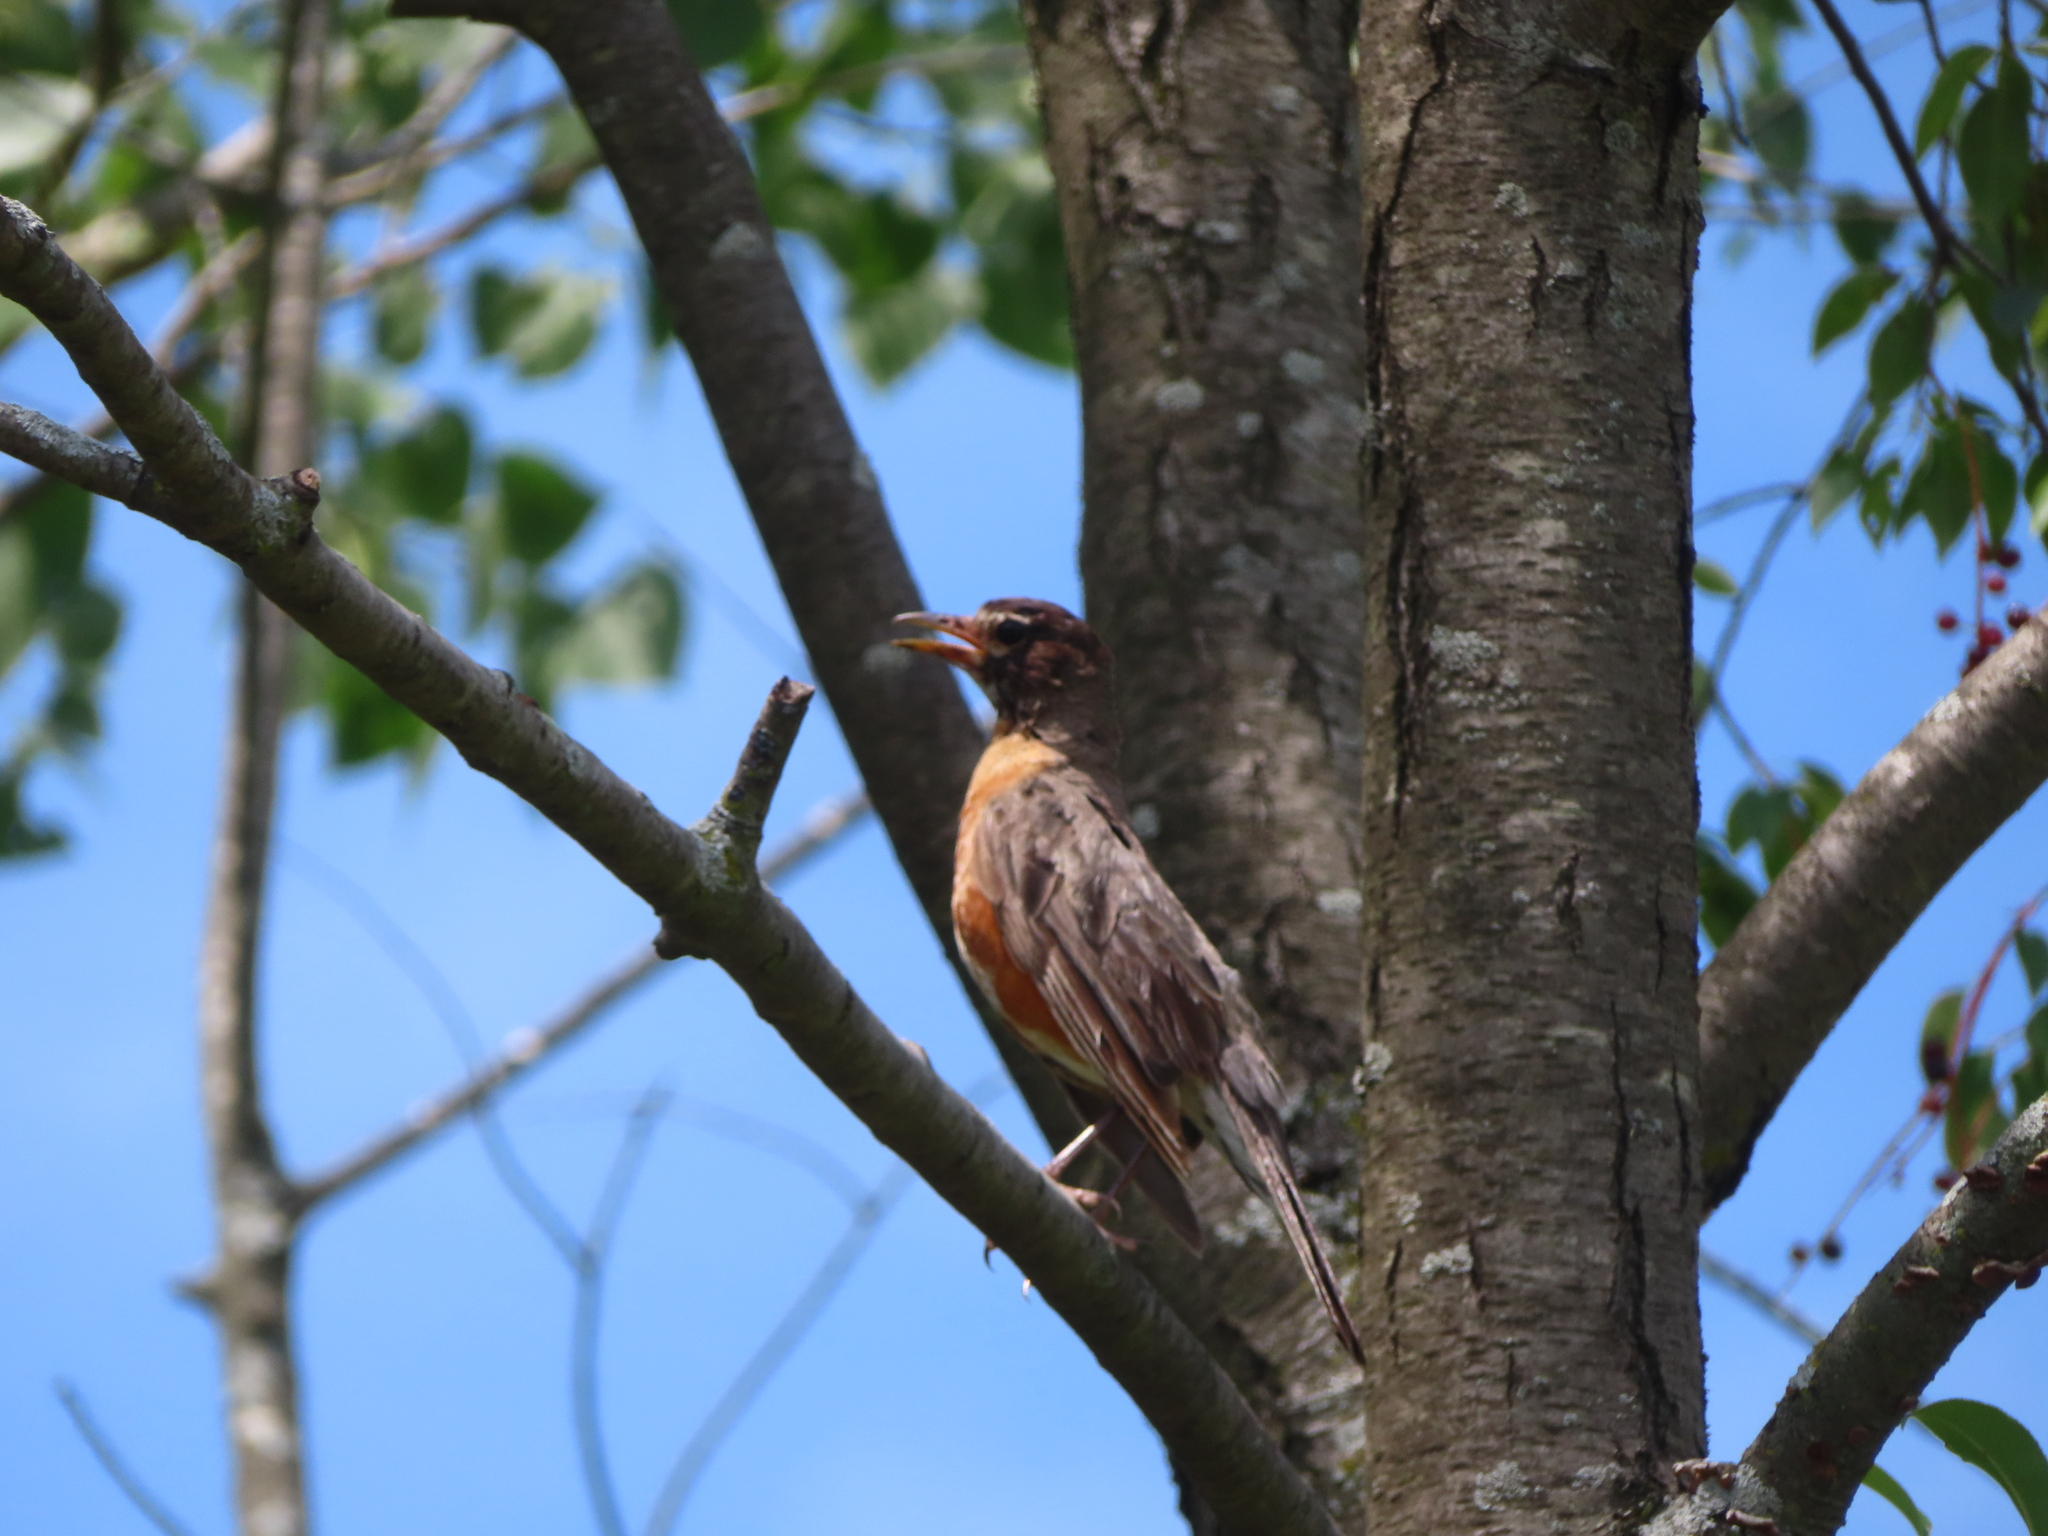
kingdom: Animalia
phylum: Chordata
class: Aves
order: Passeriformes
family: Turdidae
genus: Turdus
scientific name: Turdus migratorius
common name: American robin
